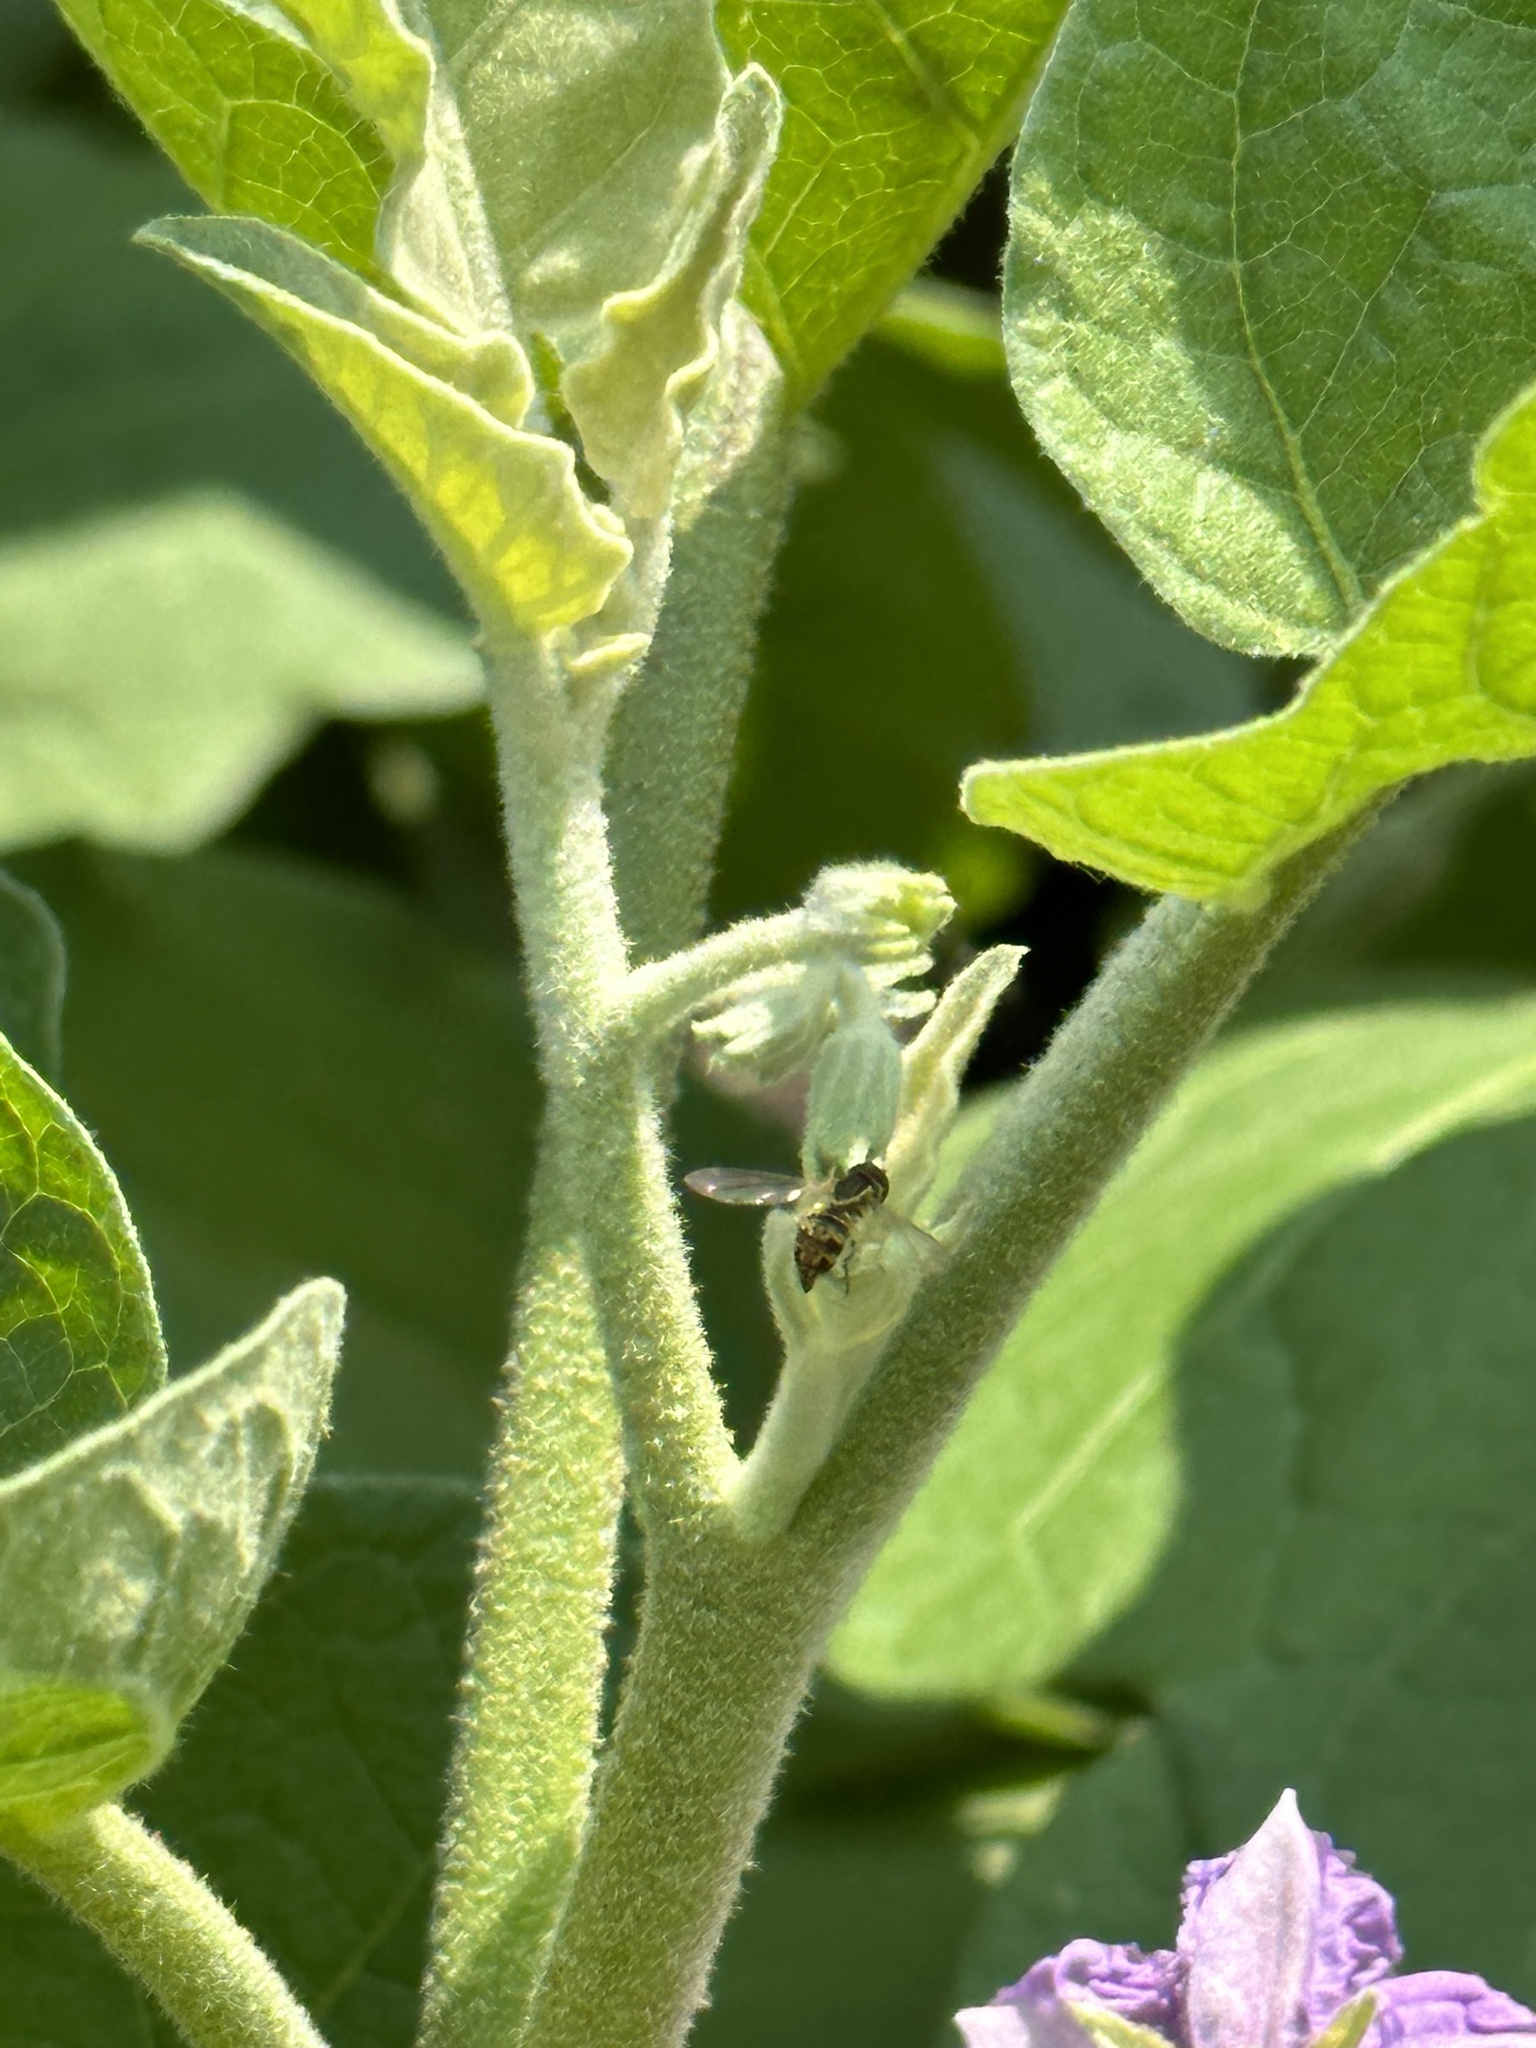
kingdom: Animalia
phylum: Arthropoda
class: Insecta
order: Diptera
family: Syrphidae
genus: Toxomerus
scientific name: Toxomerus geminatus
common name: Eastern calligrapher
